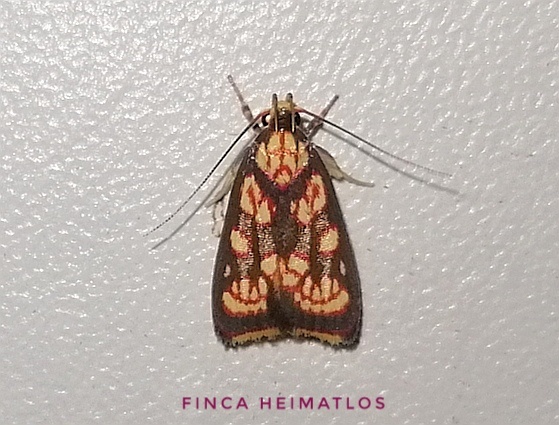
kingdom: Animalia
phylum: Arthropoda
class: Insecta
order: Lepidoptera
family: Oecophoridae
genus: Inga
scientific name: Inga trifurcata
